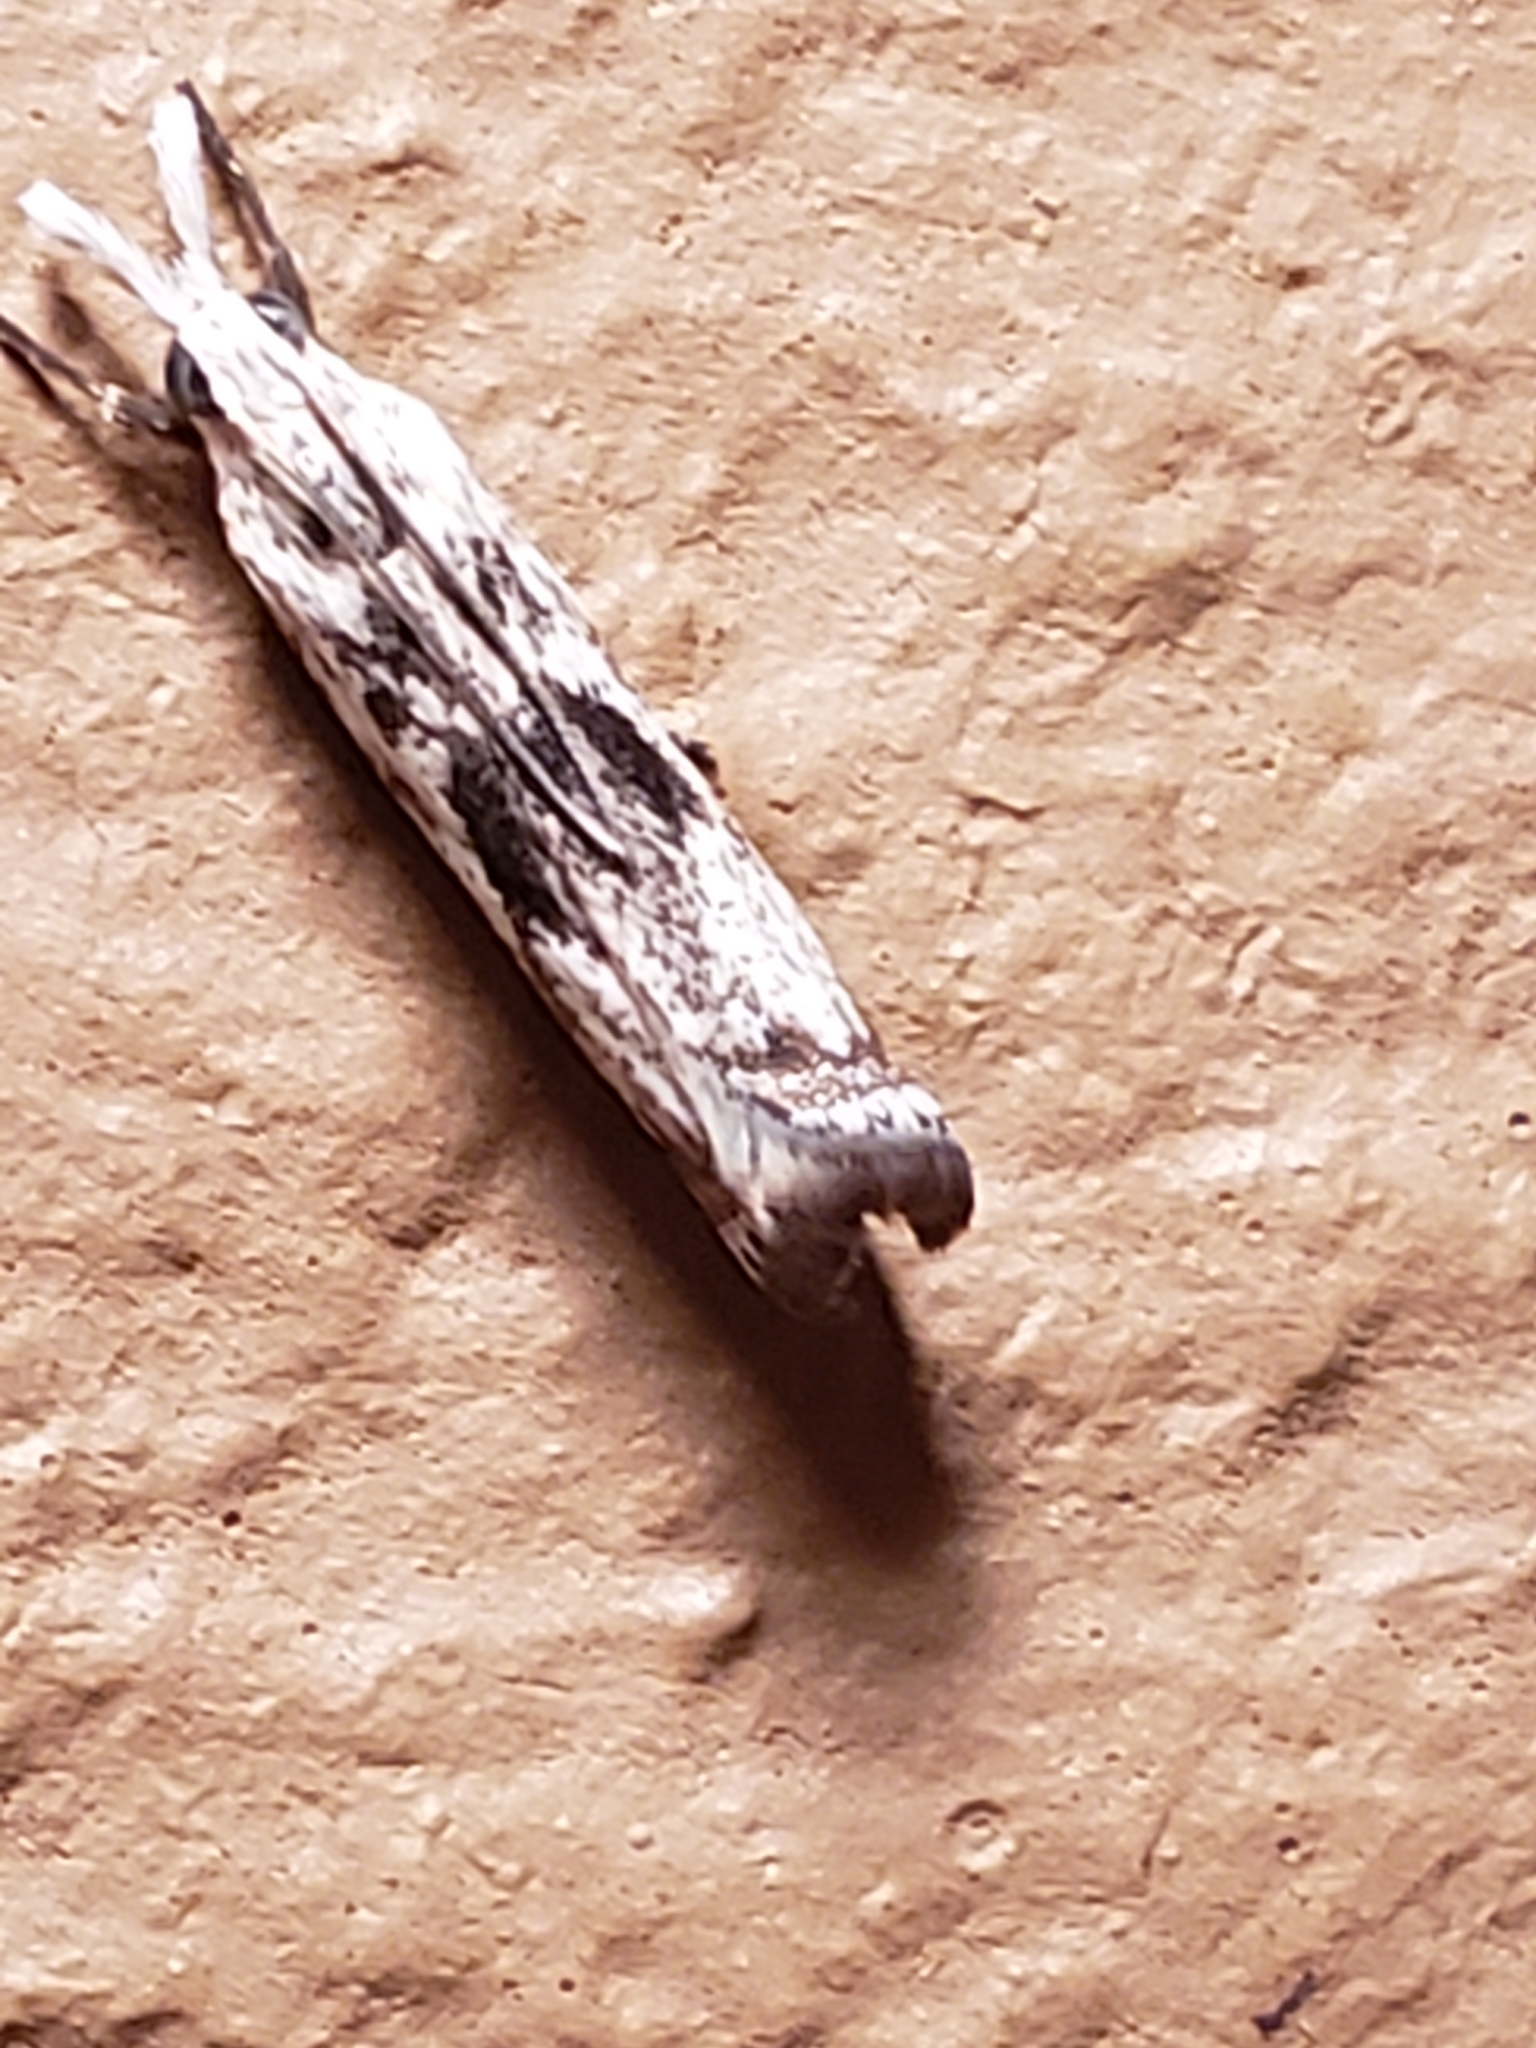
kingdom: Animalia
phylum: Arthropoda
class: Insecta
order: Lepidoptera
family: Crambidae
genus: Microcrambus
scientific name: Microcrambus elegans
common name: Elegant grass-veneer
